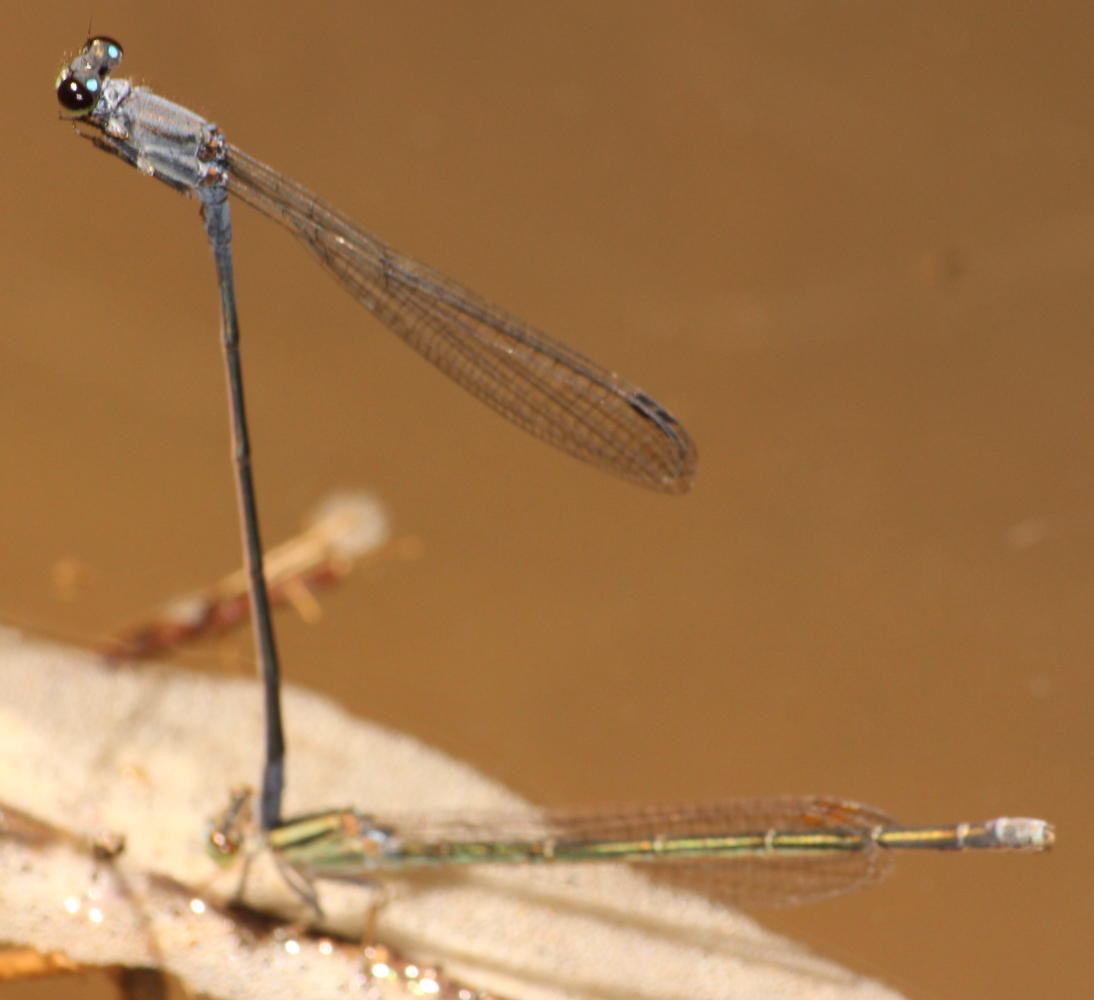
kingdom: Animalia
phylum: Arthropoda
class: Insecta
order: Odonata
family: Coenagrionidae
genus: Pseudagrion
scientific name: Pseudagrion salisburyense
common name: Slate sprite
